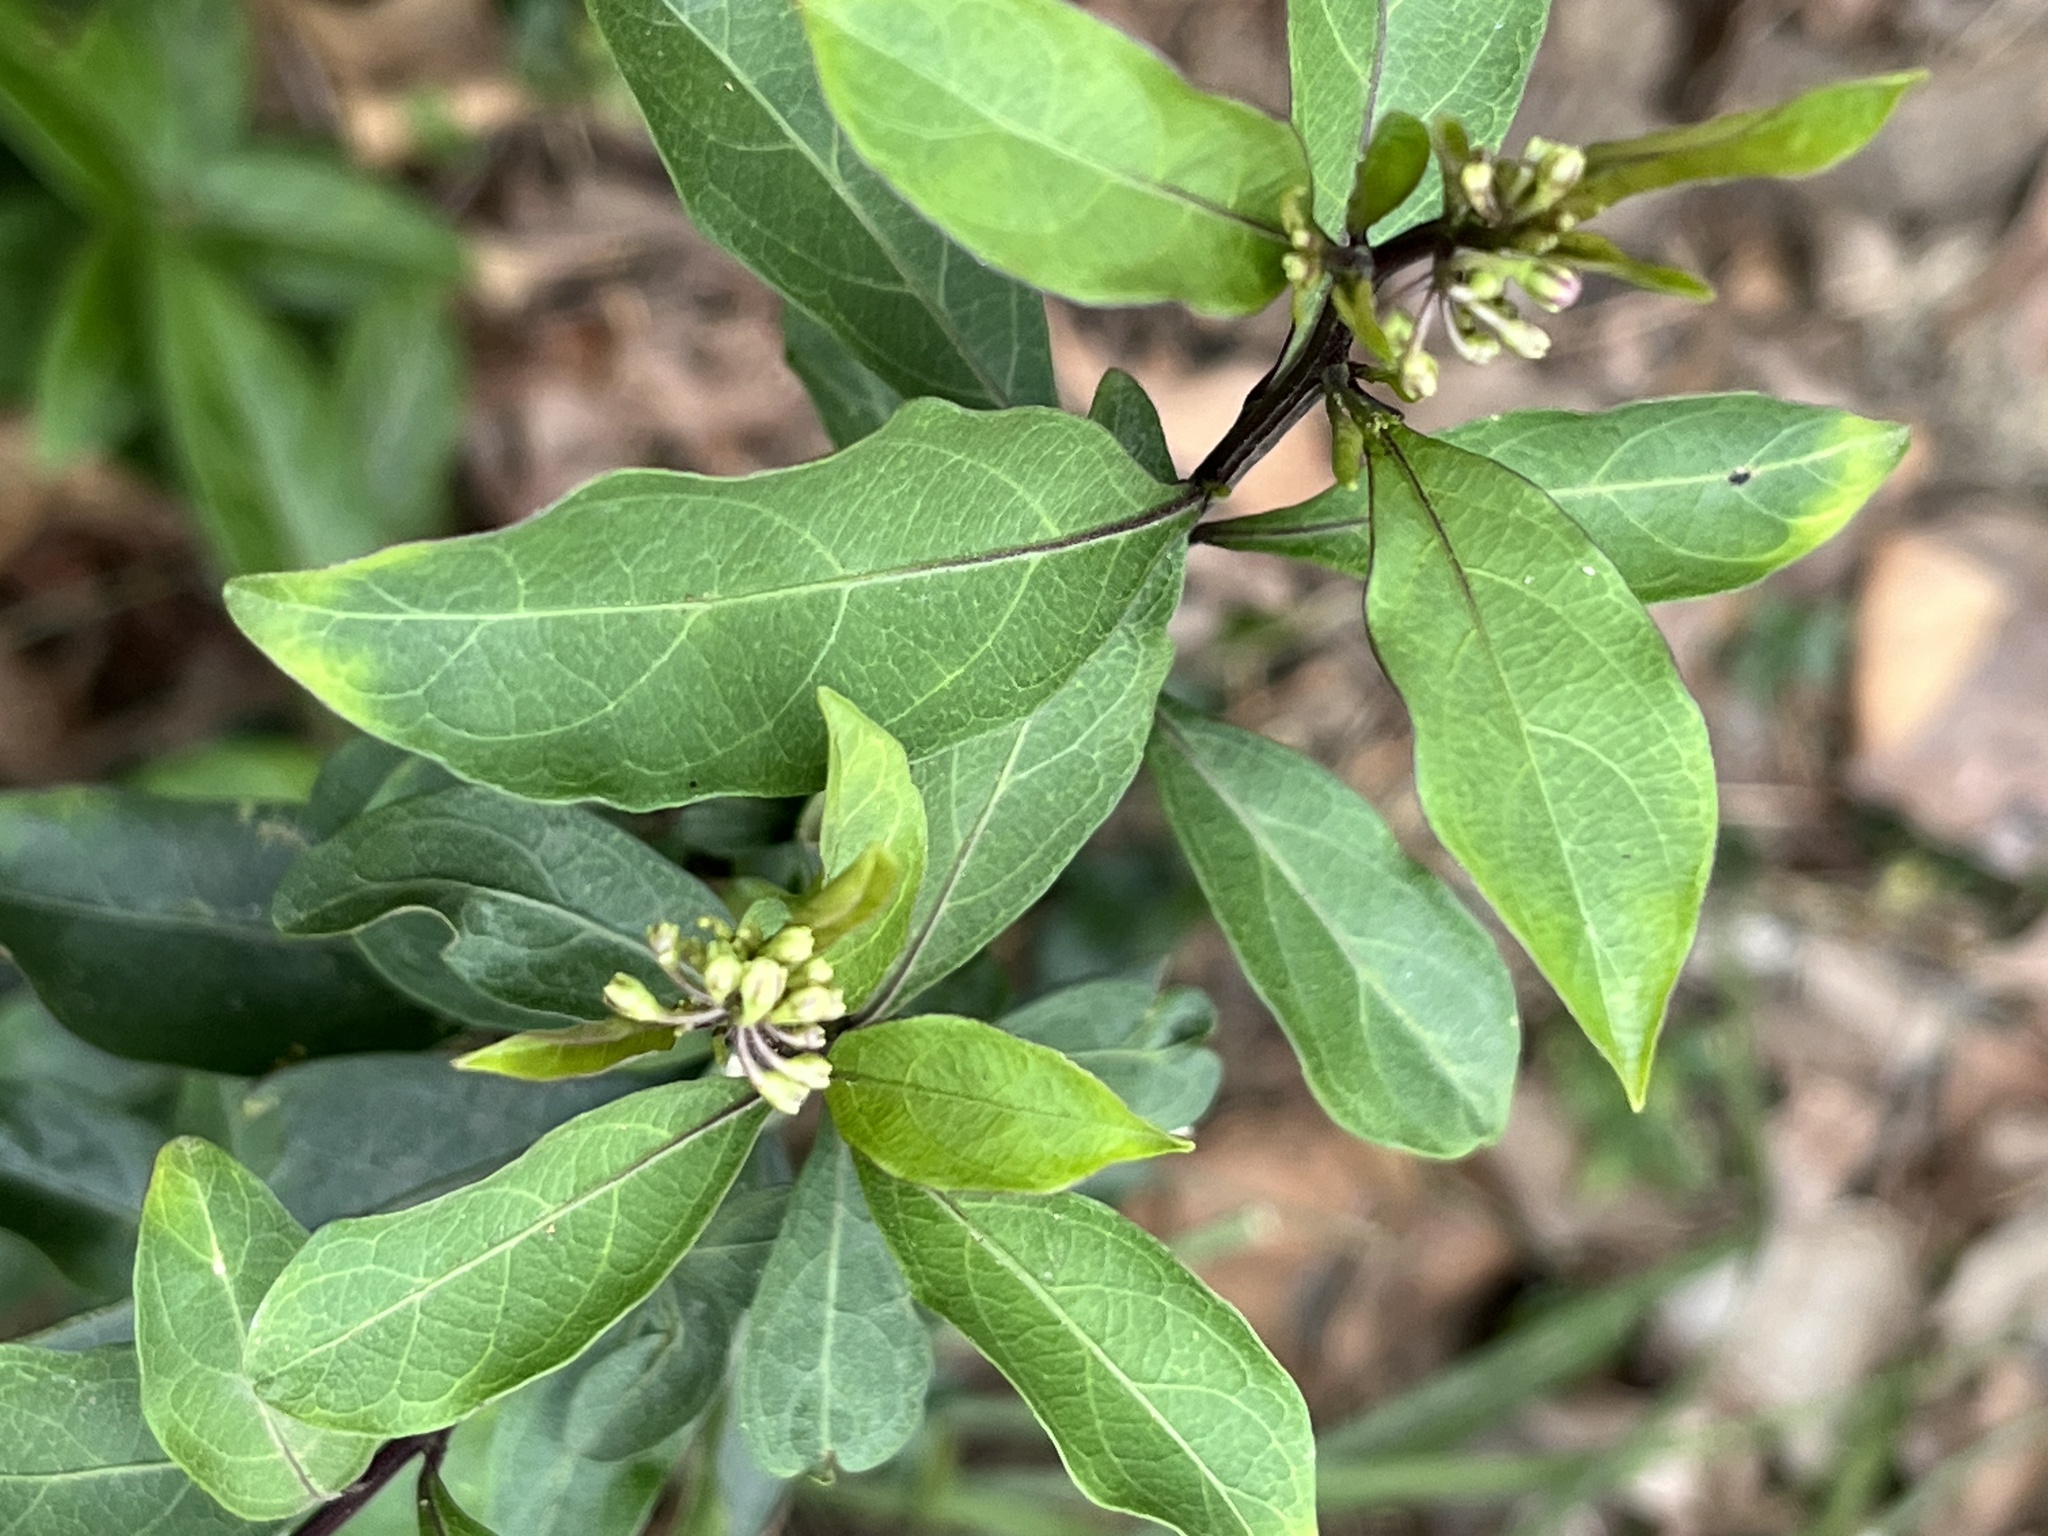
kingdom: Plantae
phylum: Tracheophyta
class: Magnoliopsida
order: Solanales
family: Solanaceae
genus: Solanum
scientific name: Solanum diphyllum
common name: Twoleaf nightshade
